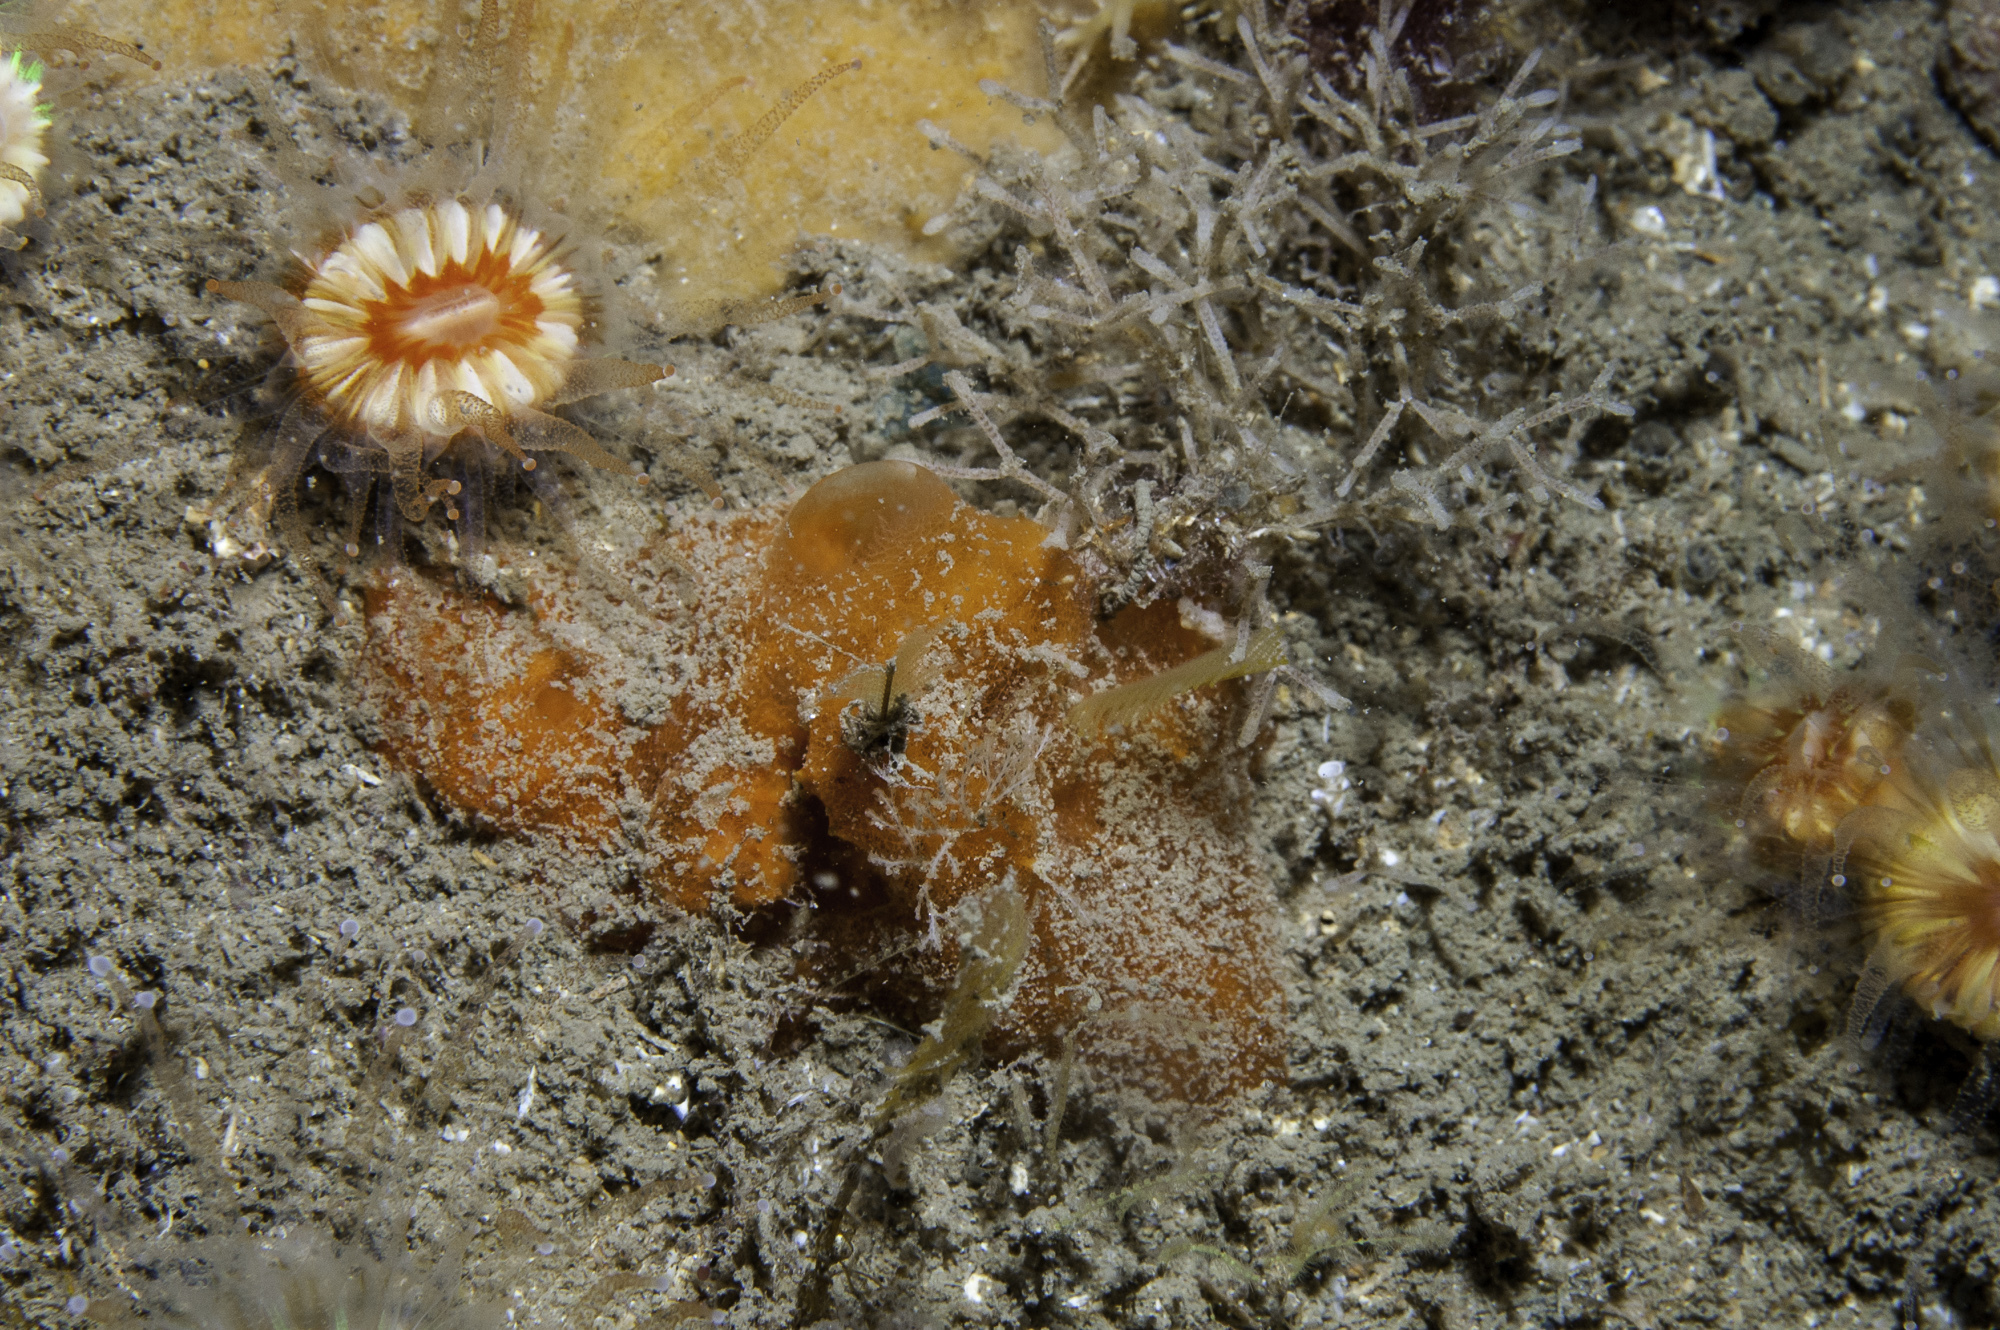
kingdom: Animalia
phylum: Porifera
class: Demospongiae
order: Poecilosclerida
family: Mycalidae
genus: Mycale
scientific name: Mycale rotalis
